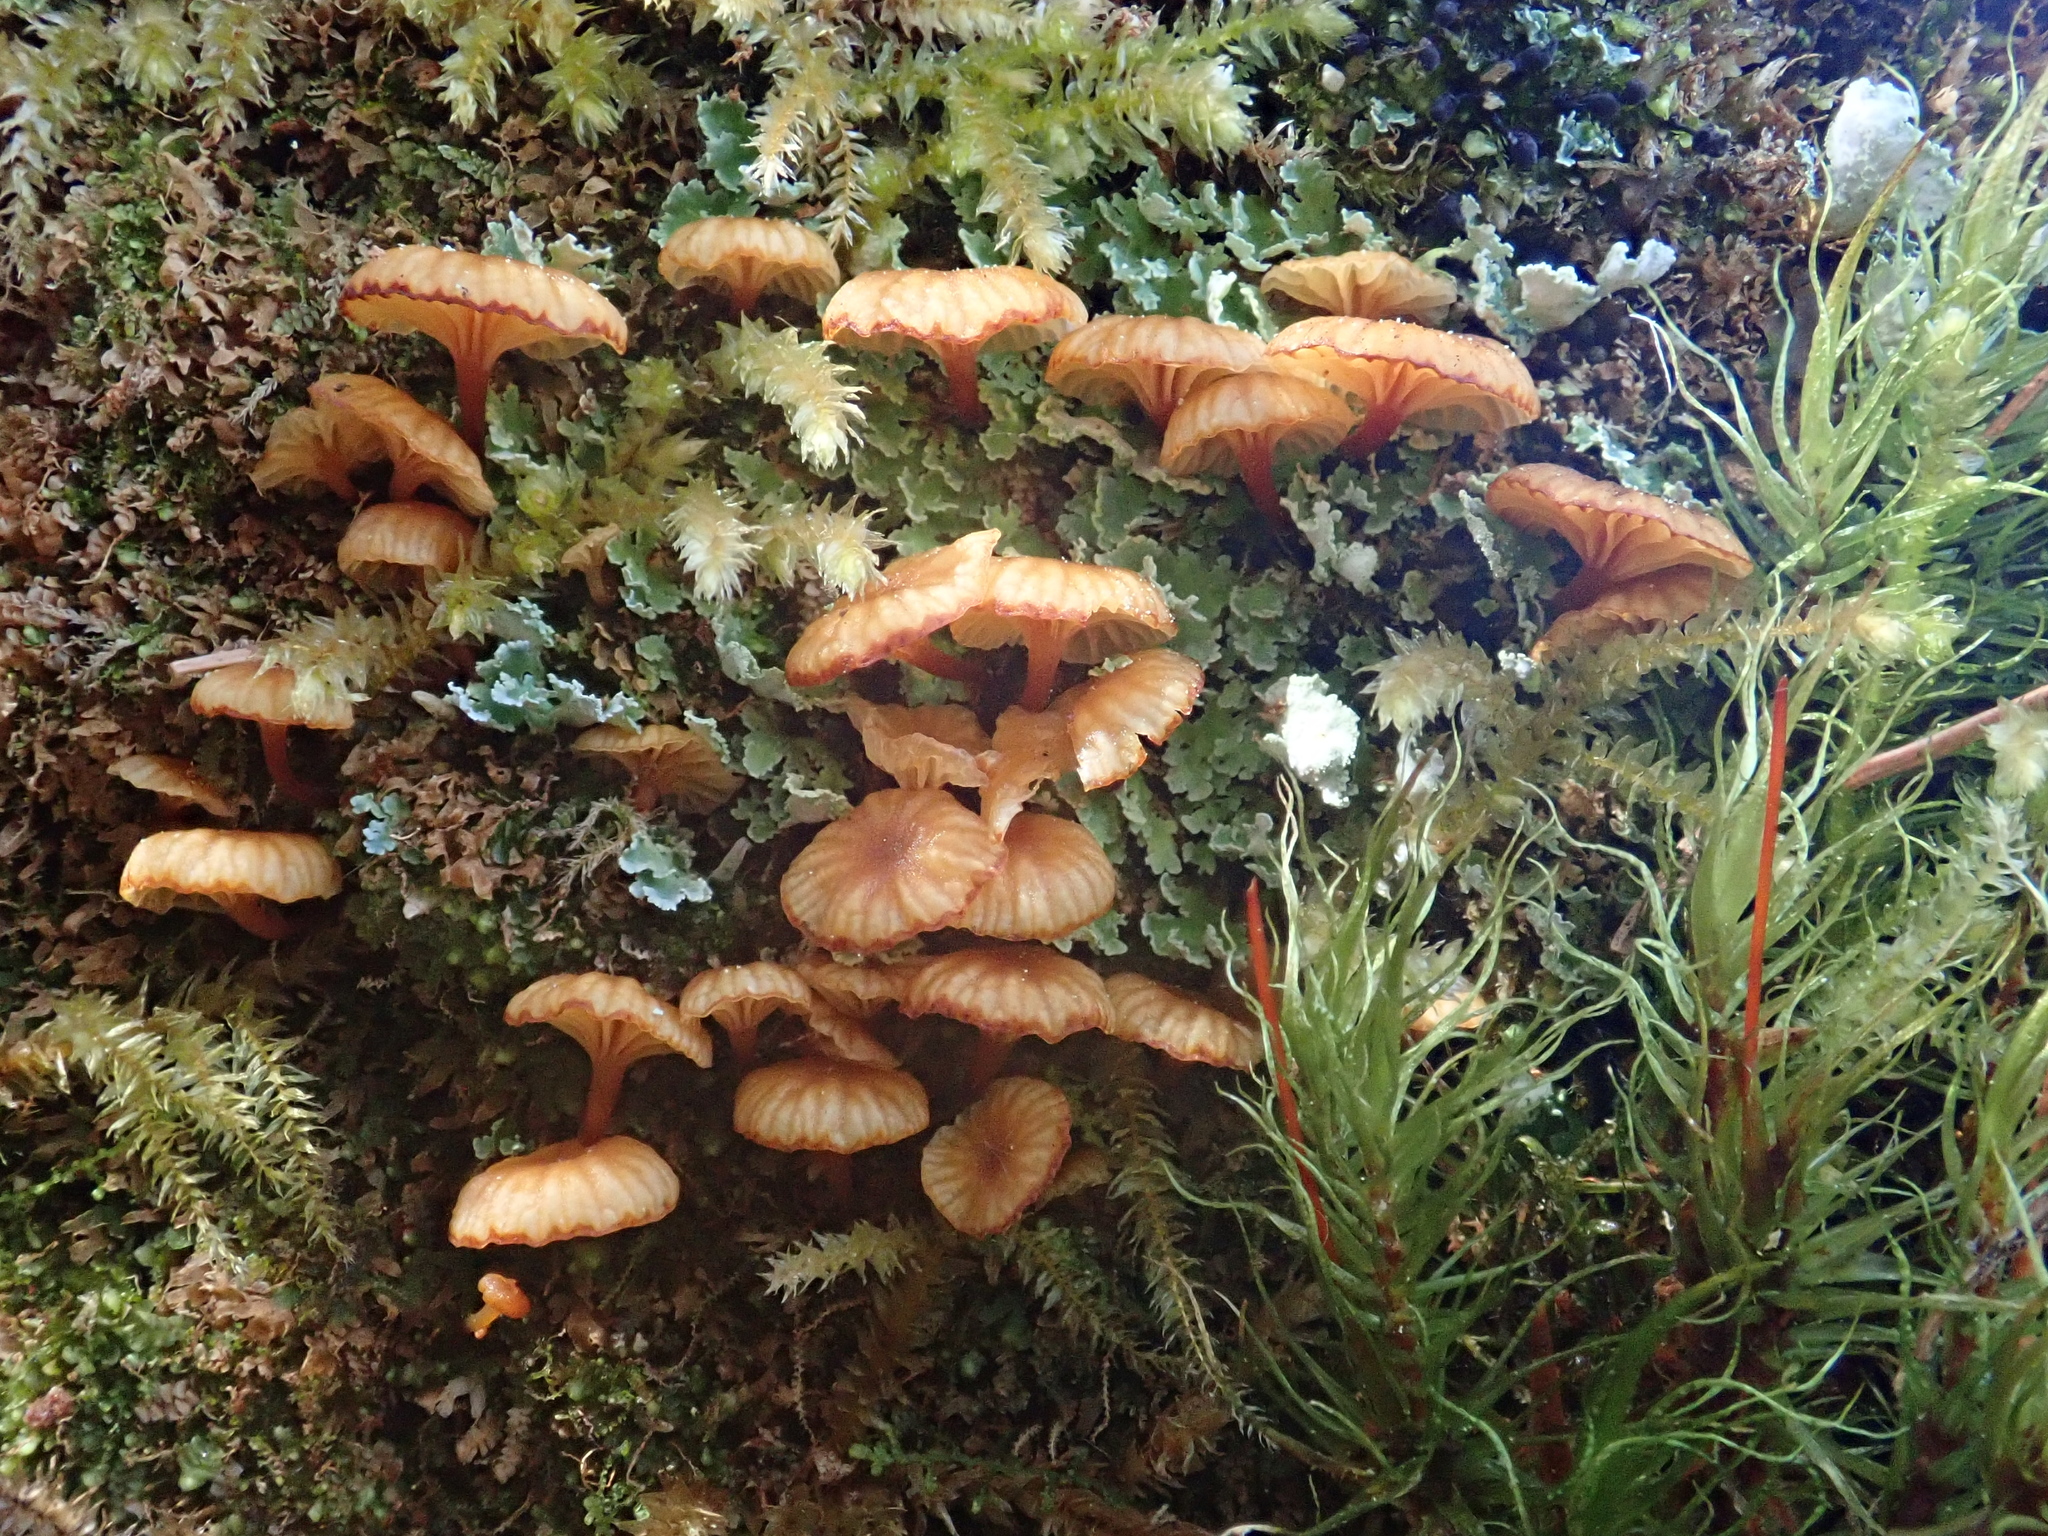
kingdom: Fungi
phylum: Basidiomycota
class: Agaricomycetes
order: Agaricales
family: Mycenaceae
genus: Xeromphalina
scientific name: Xeromphalina campanella
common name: Pinewood gingertail
